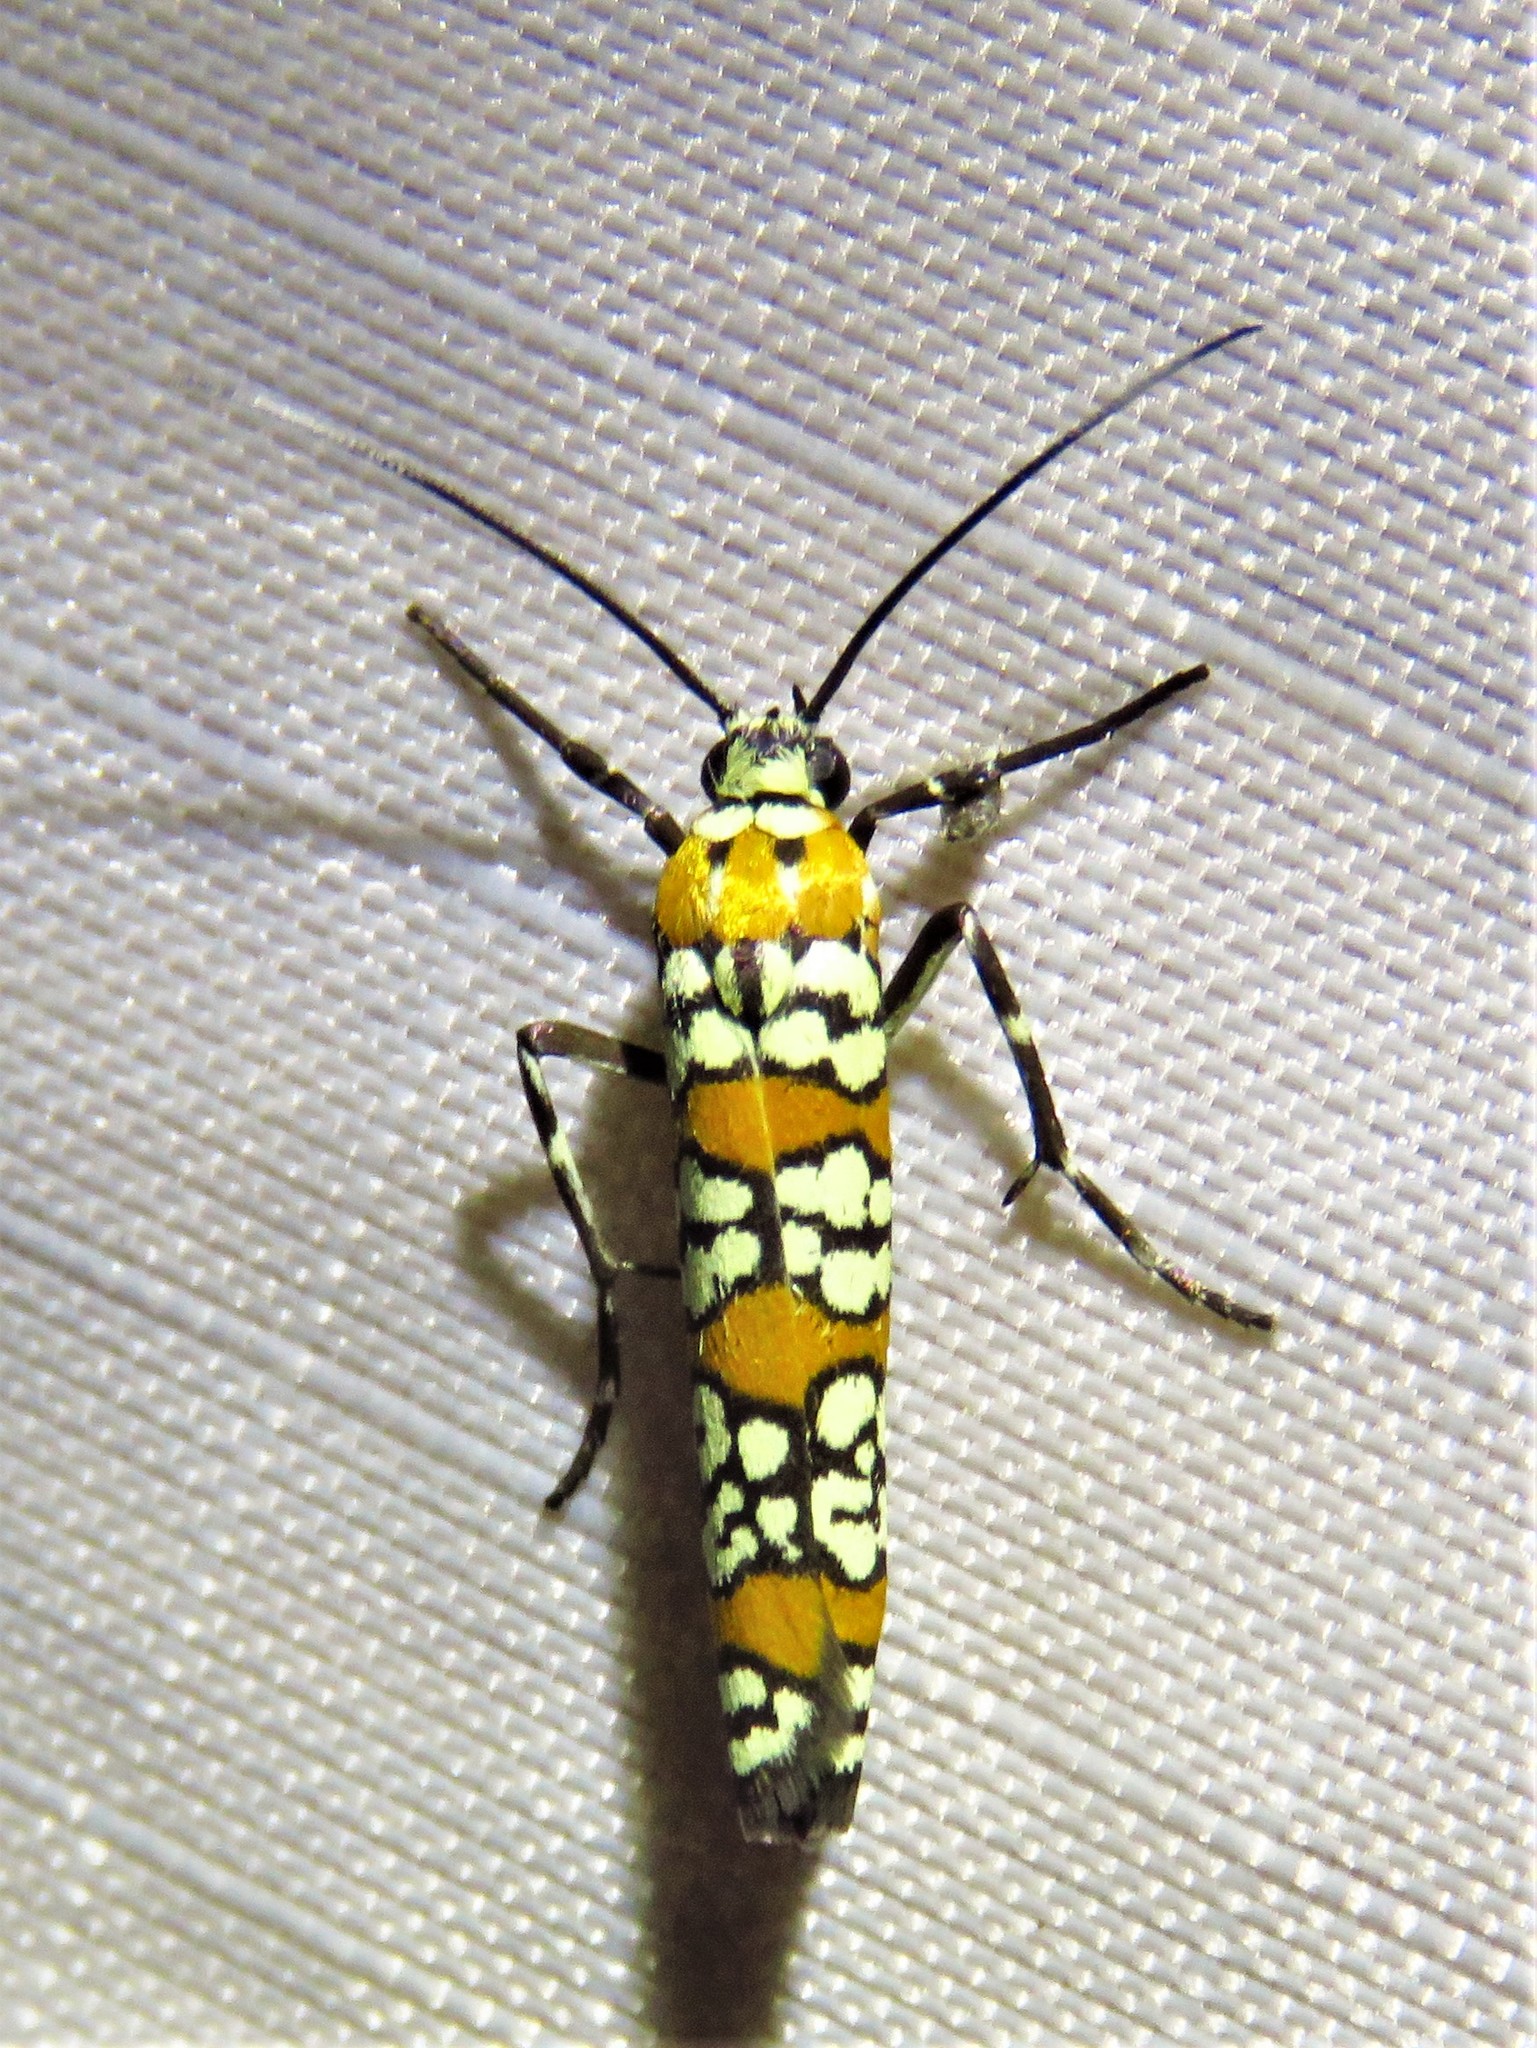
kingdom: Animalia
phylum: Arthropoda
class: Insecta
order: Lepidoptera
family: Attevidae
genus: Atteva
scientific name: Atteva punctella
